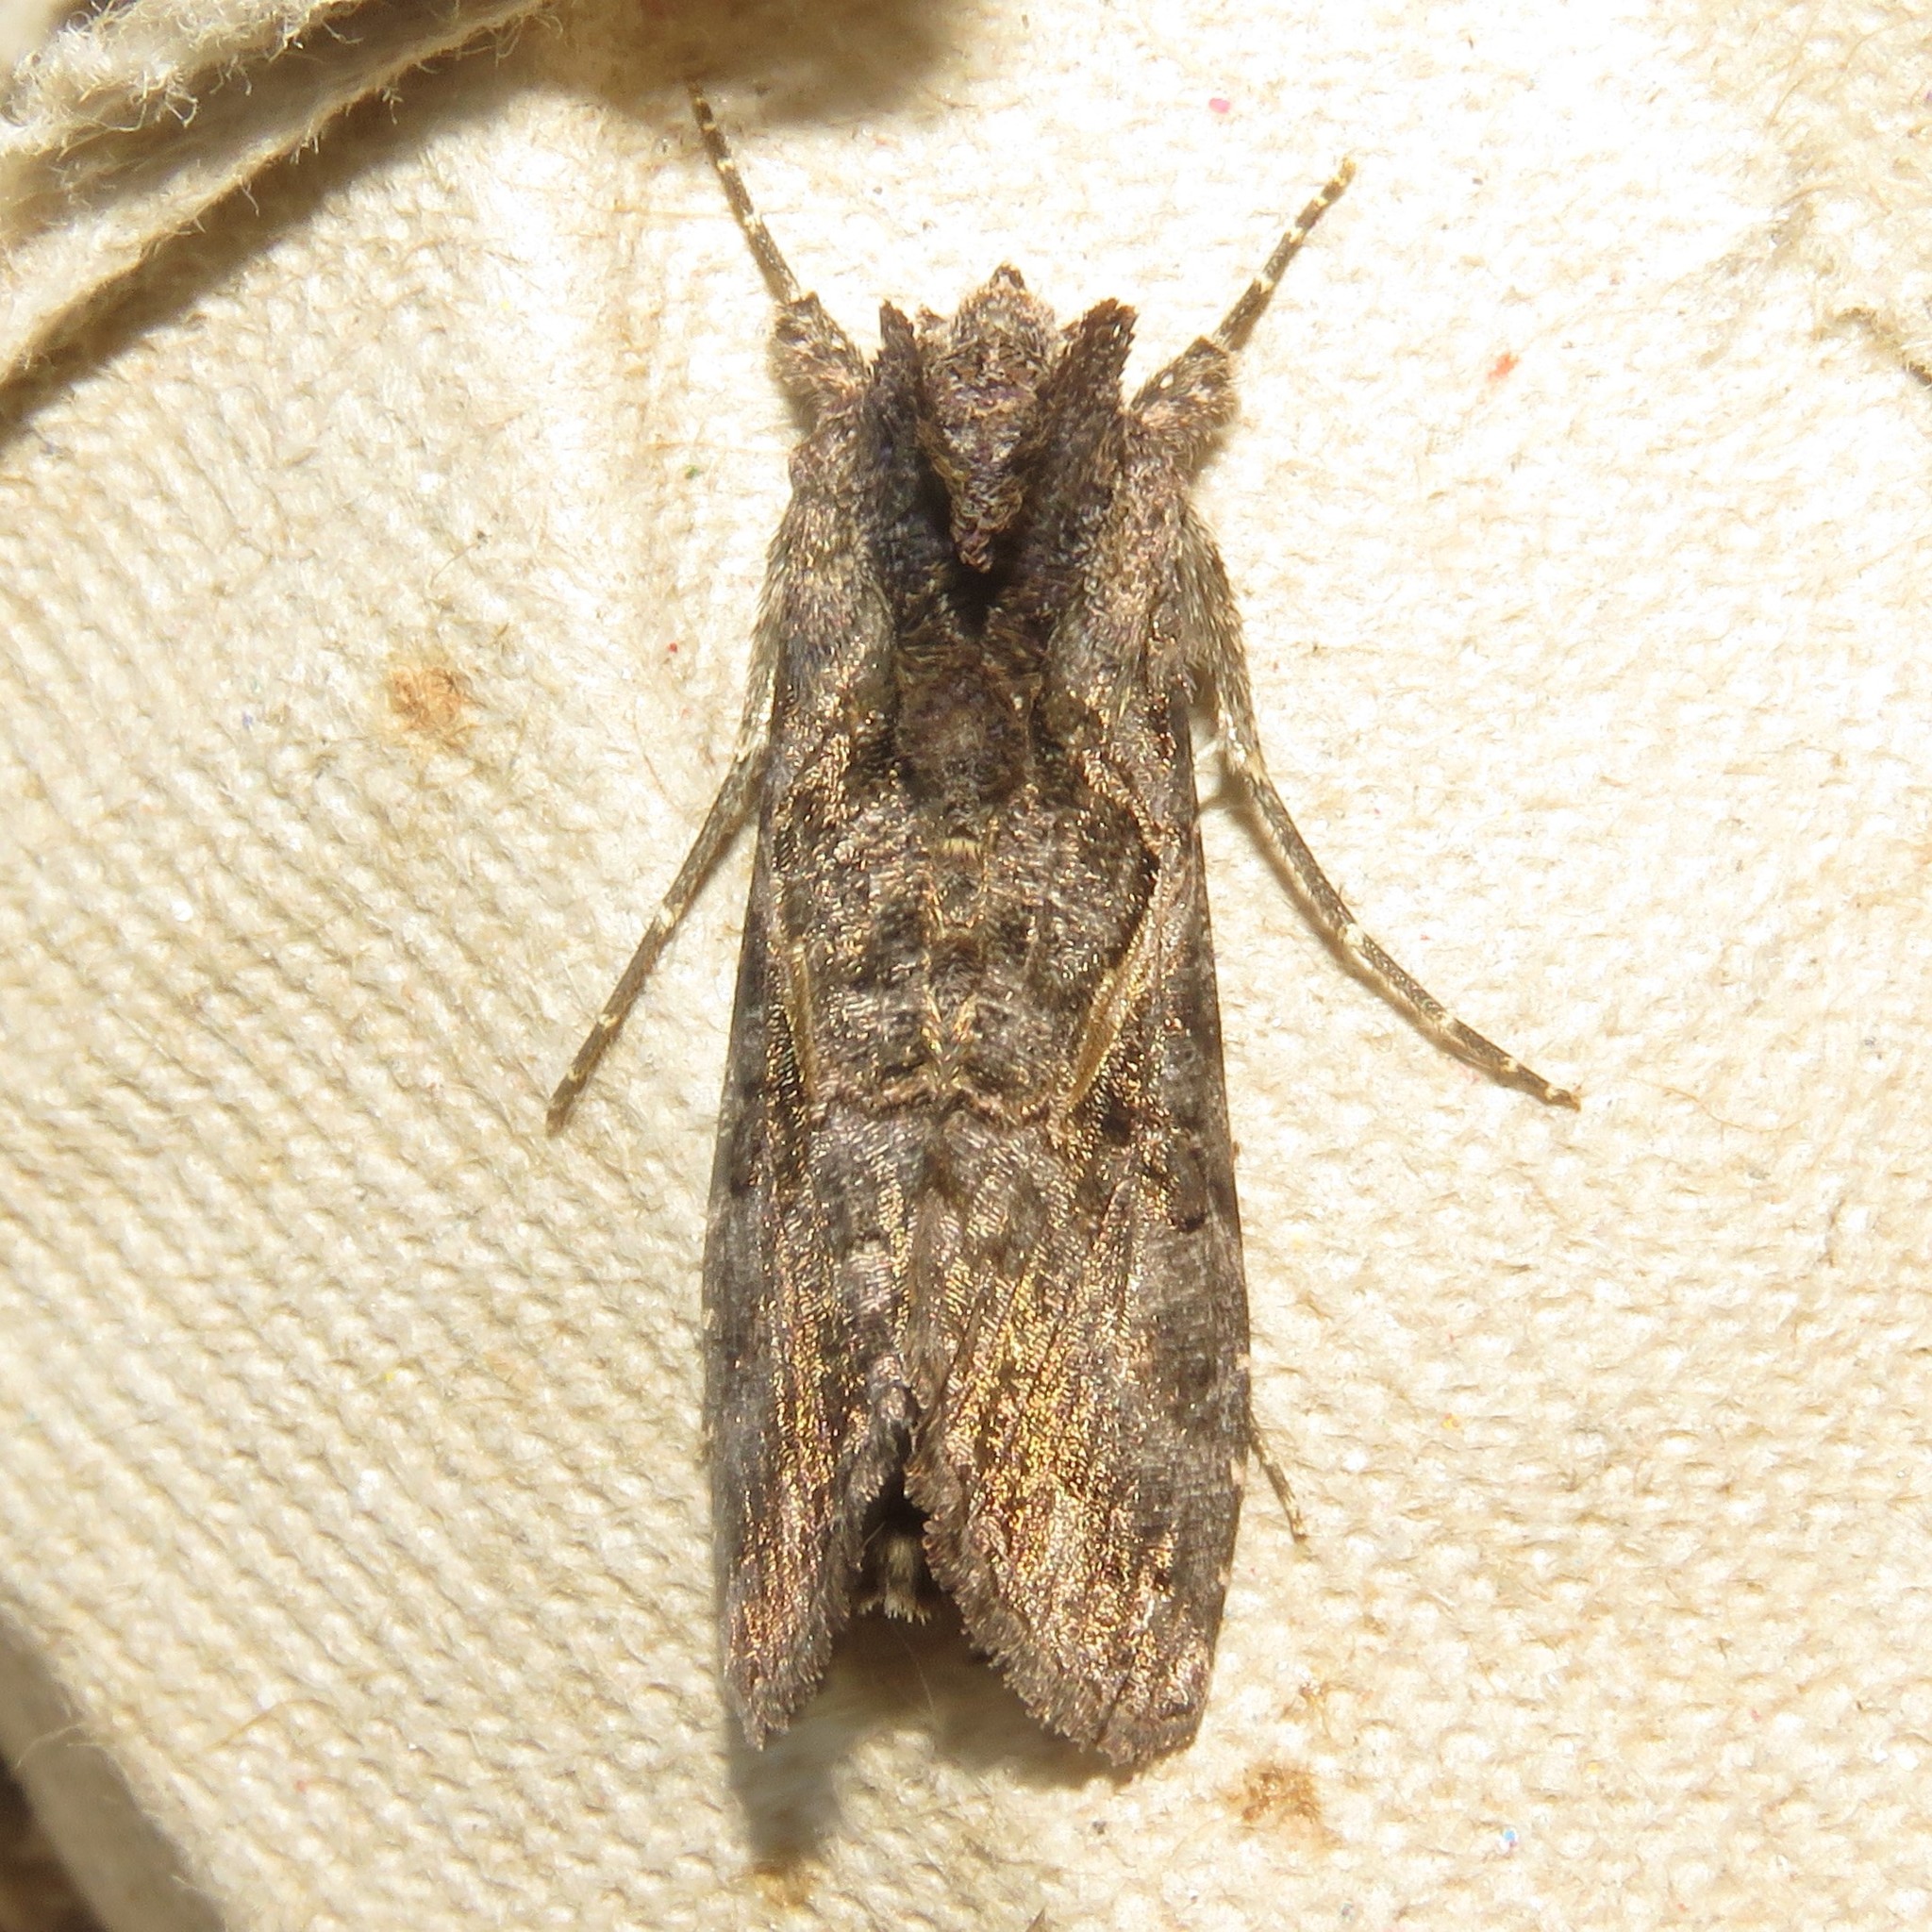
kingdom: Animalia
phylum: Arthropoda
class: Insecta
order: Lepidoptera
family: Noctuidae
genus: Ctenoplusia
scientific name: Ctenoplusia oxygramma
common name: Sharp-stigma looper moth
